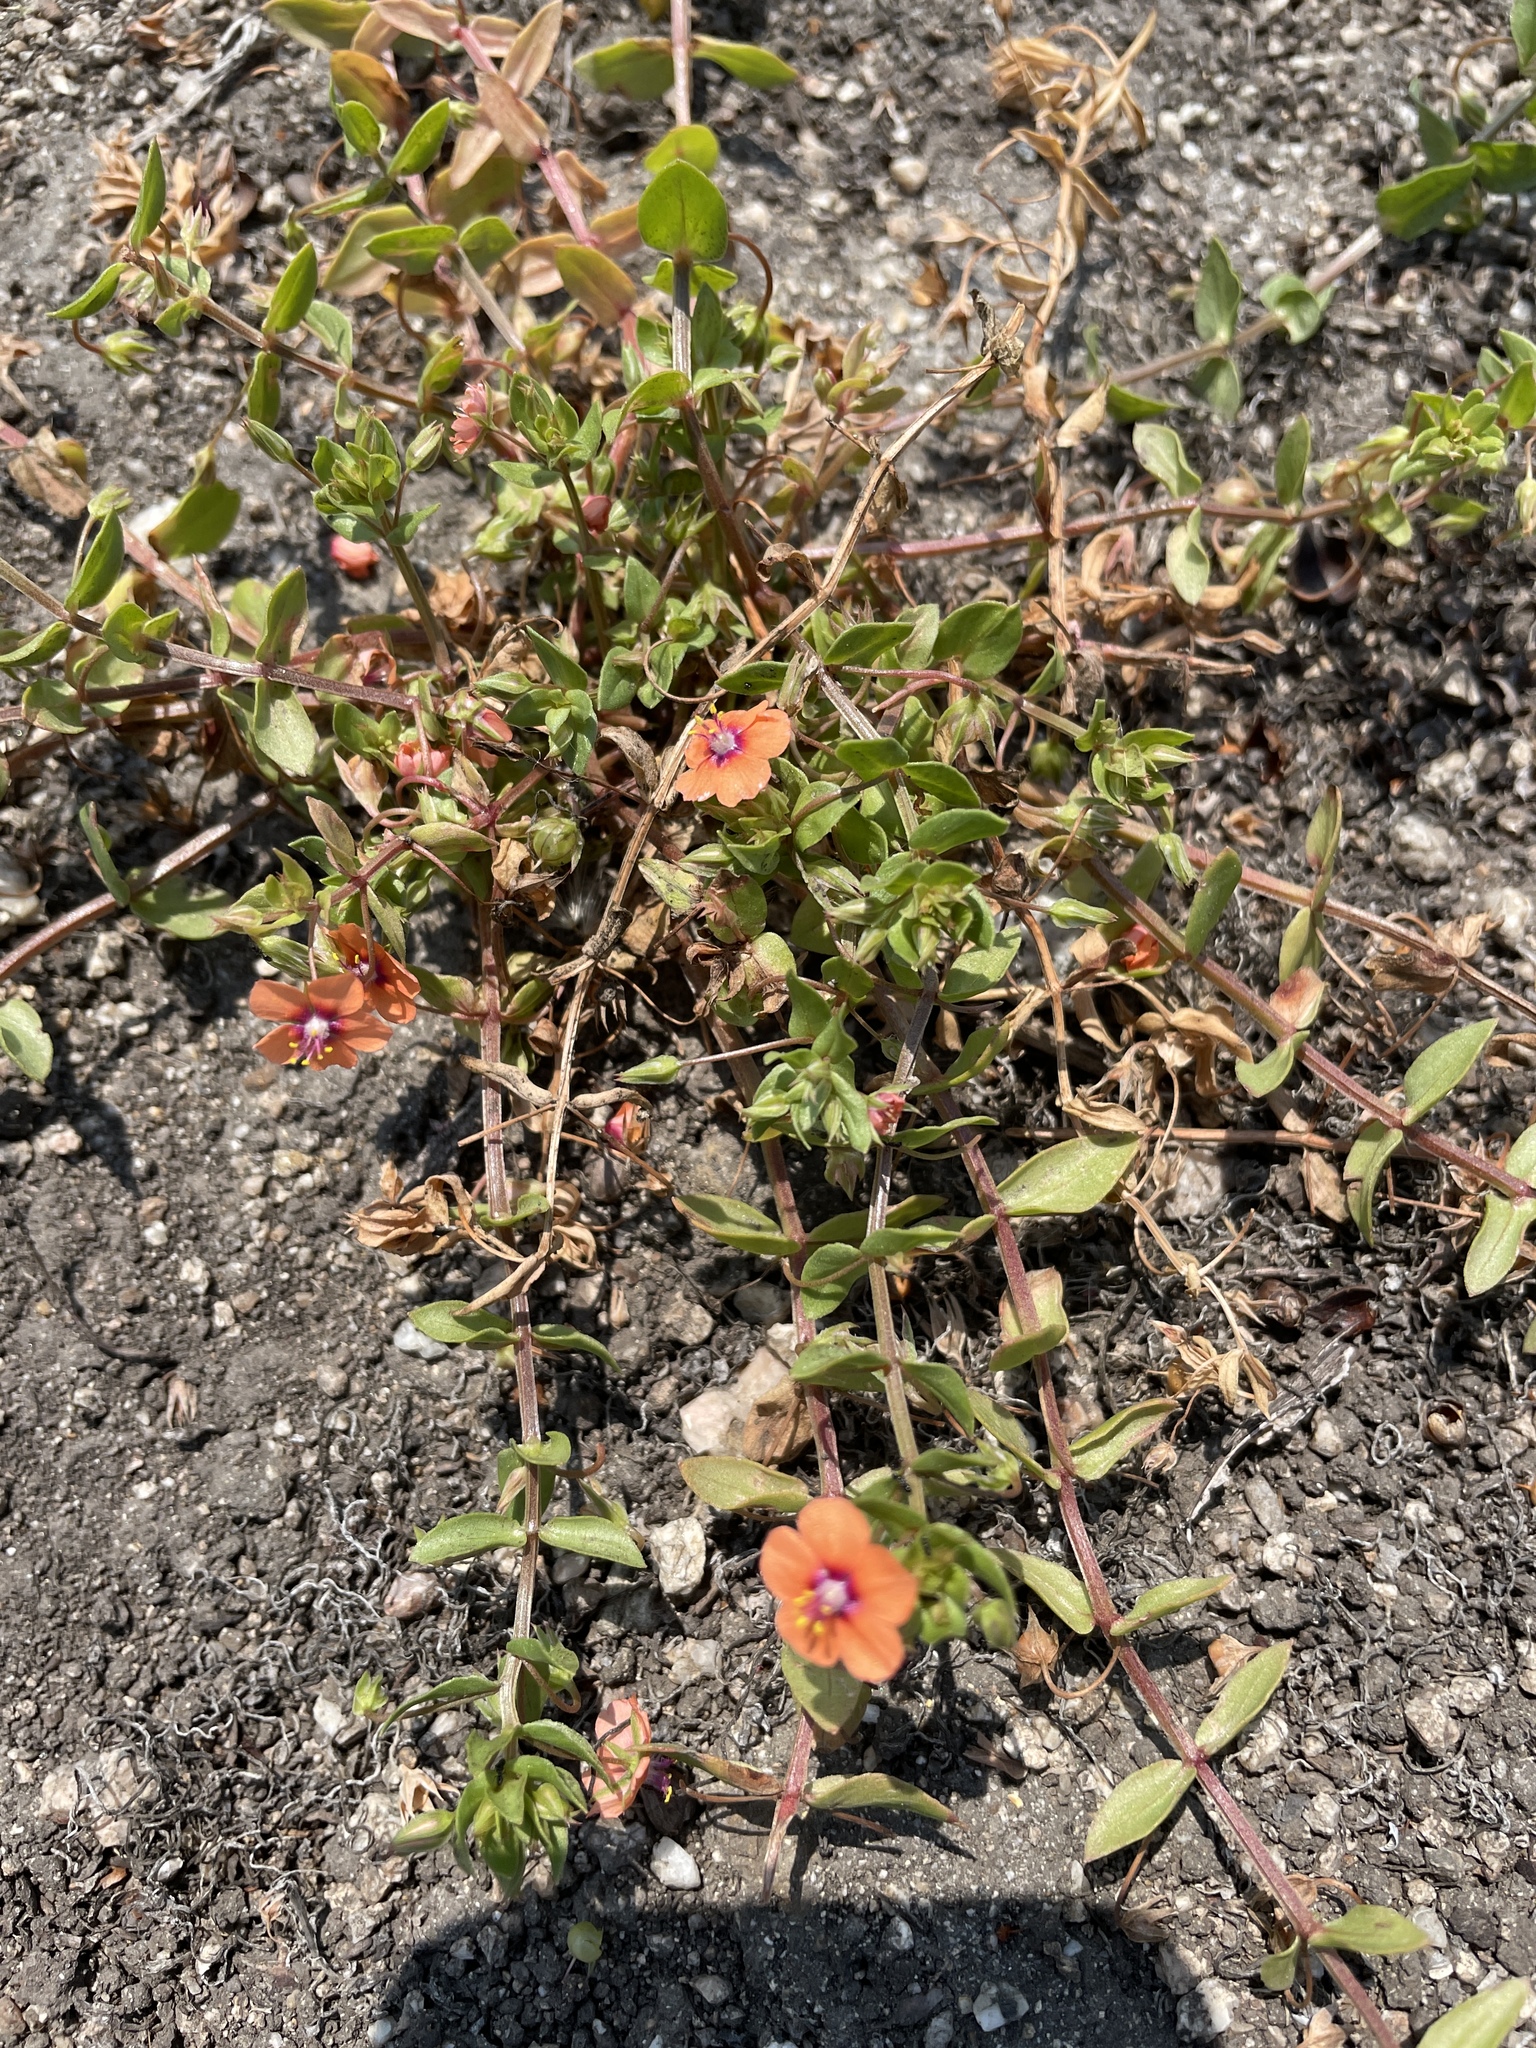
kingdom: Plantae
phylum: Tracheophyta
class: Magnoliopsida
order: Ericales
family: Primulaceae
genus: Lysimachia
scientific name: Lysimachia arvensis
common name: Scarlet pimpernel
